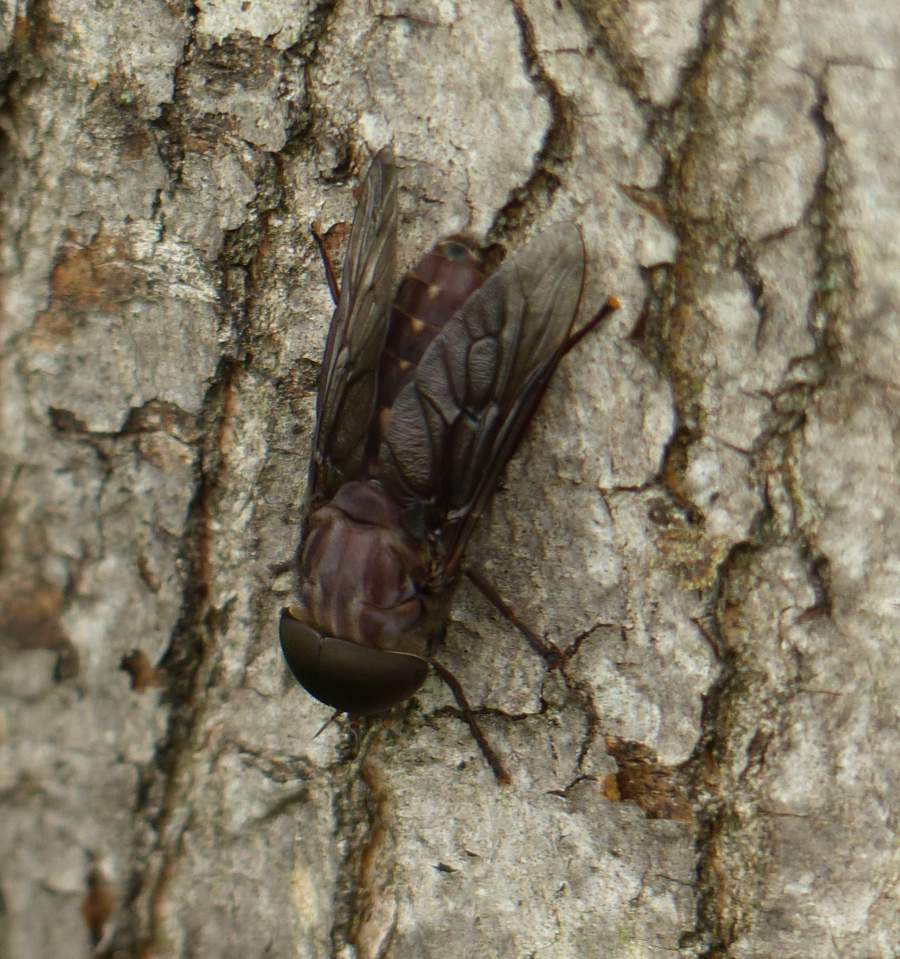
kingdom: Animalia
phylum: Arthropoda
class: Insecta
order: Diptera
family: Tabanidae
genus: Tabanus
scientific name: Tabanus catenatus
